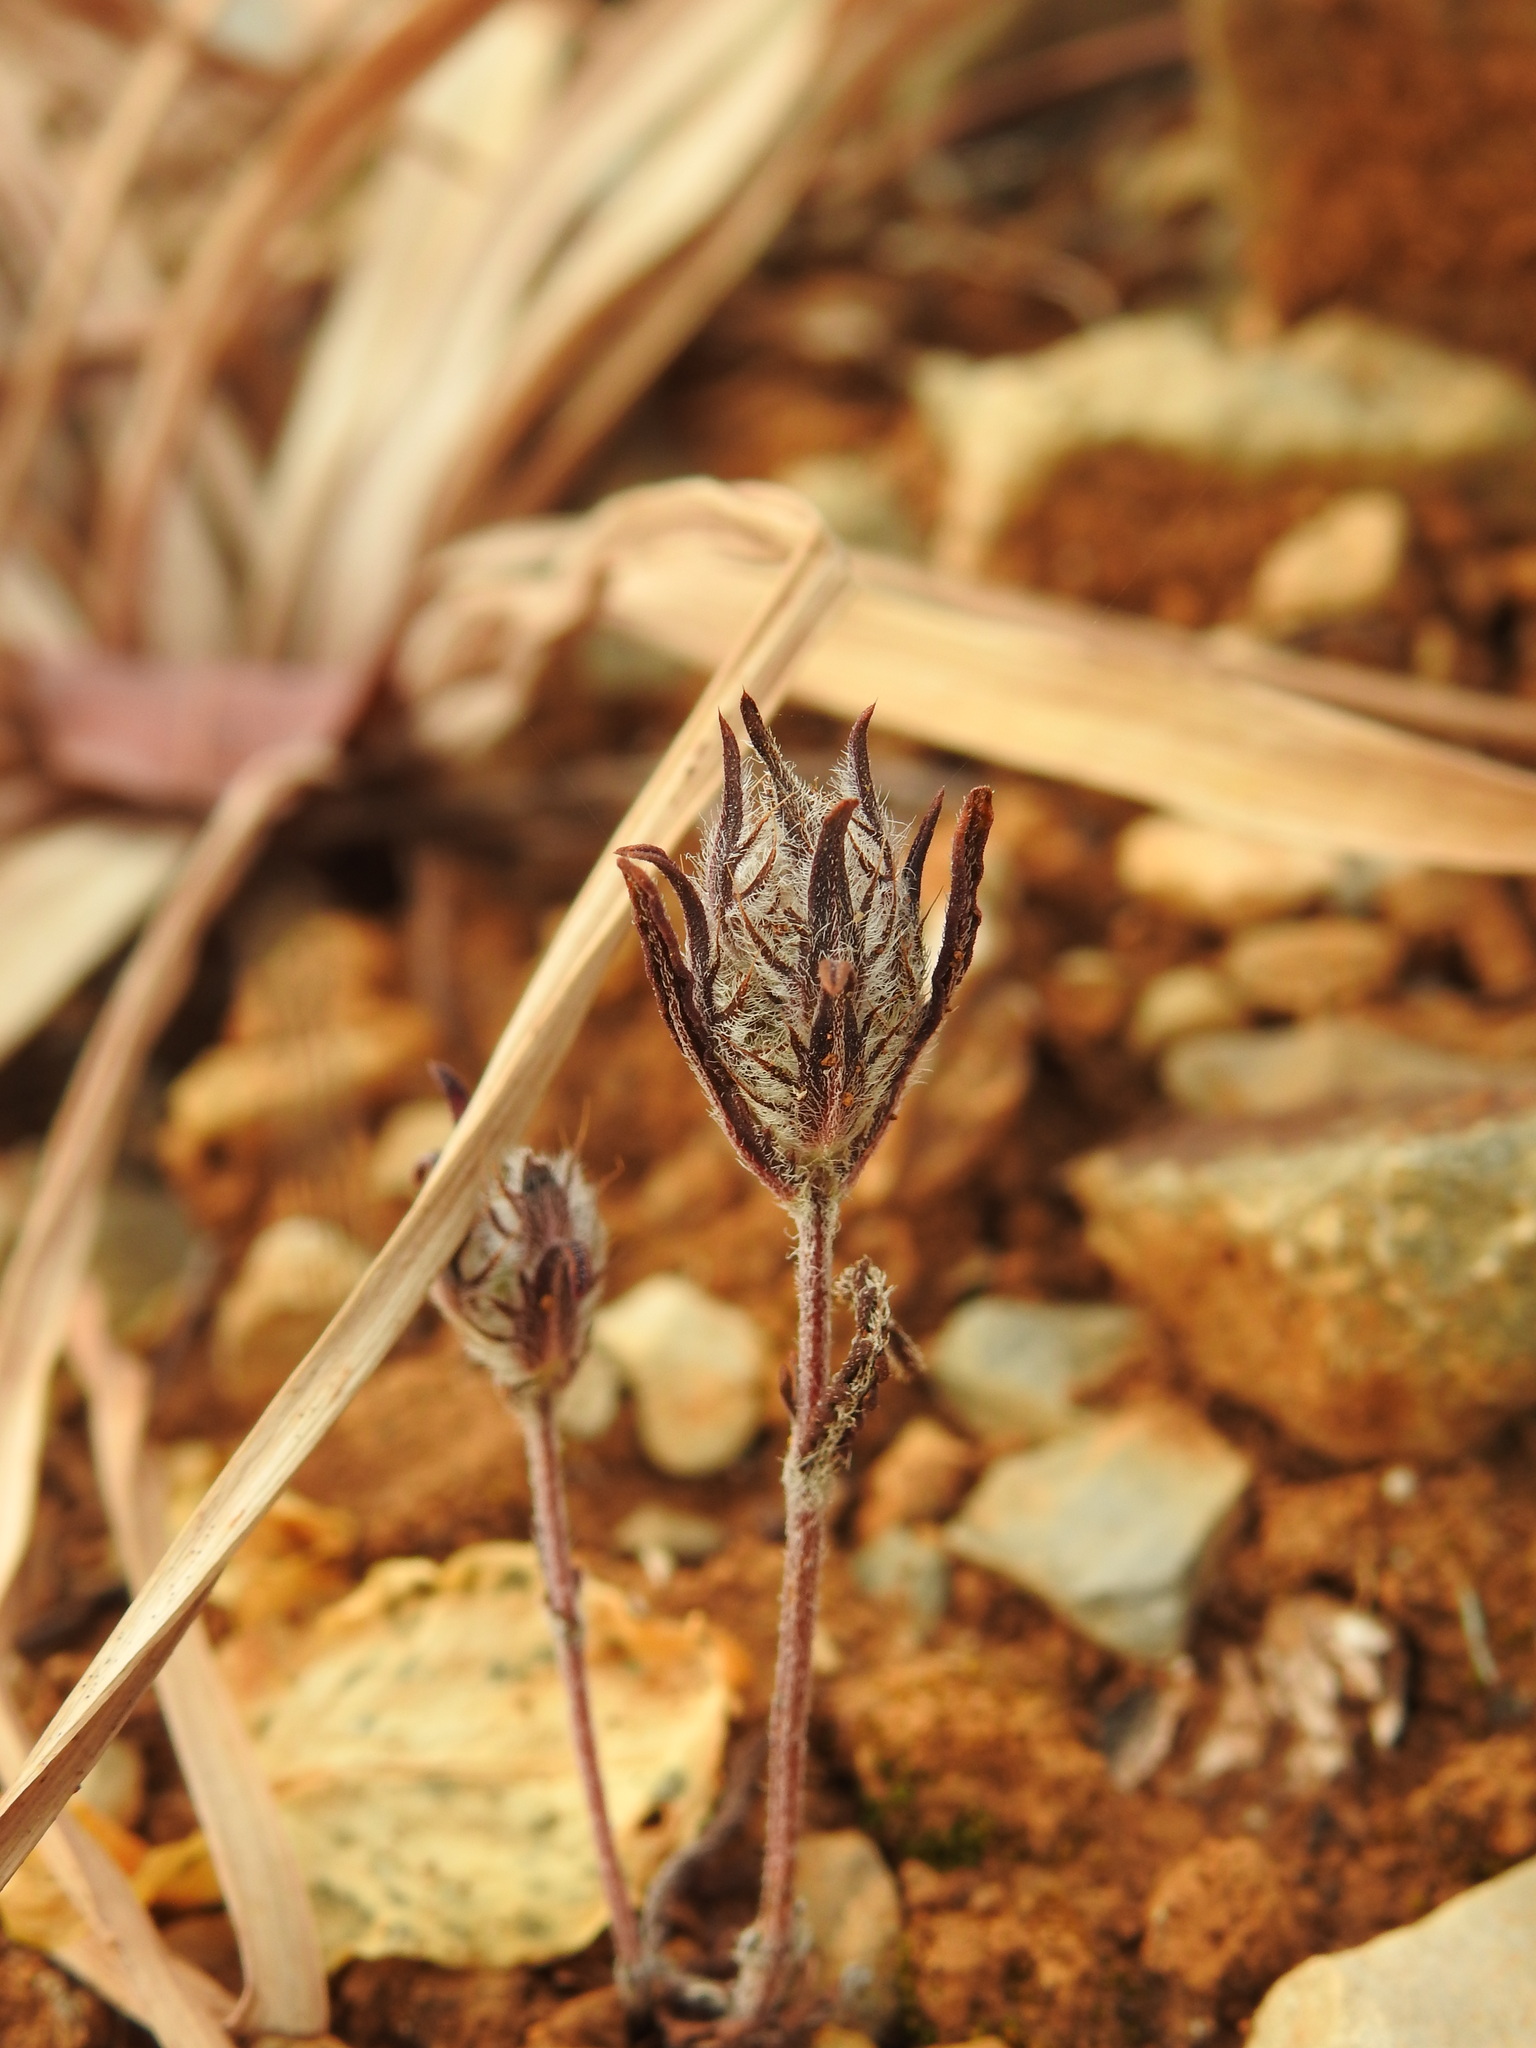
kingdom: Plantae
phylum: Tracheophyta
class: Magnoliopsida
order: Lamiales
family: Lamiaceae
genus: Cleonia
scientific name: Cleonia lusitanica
